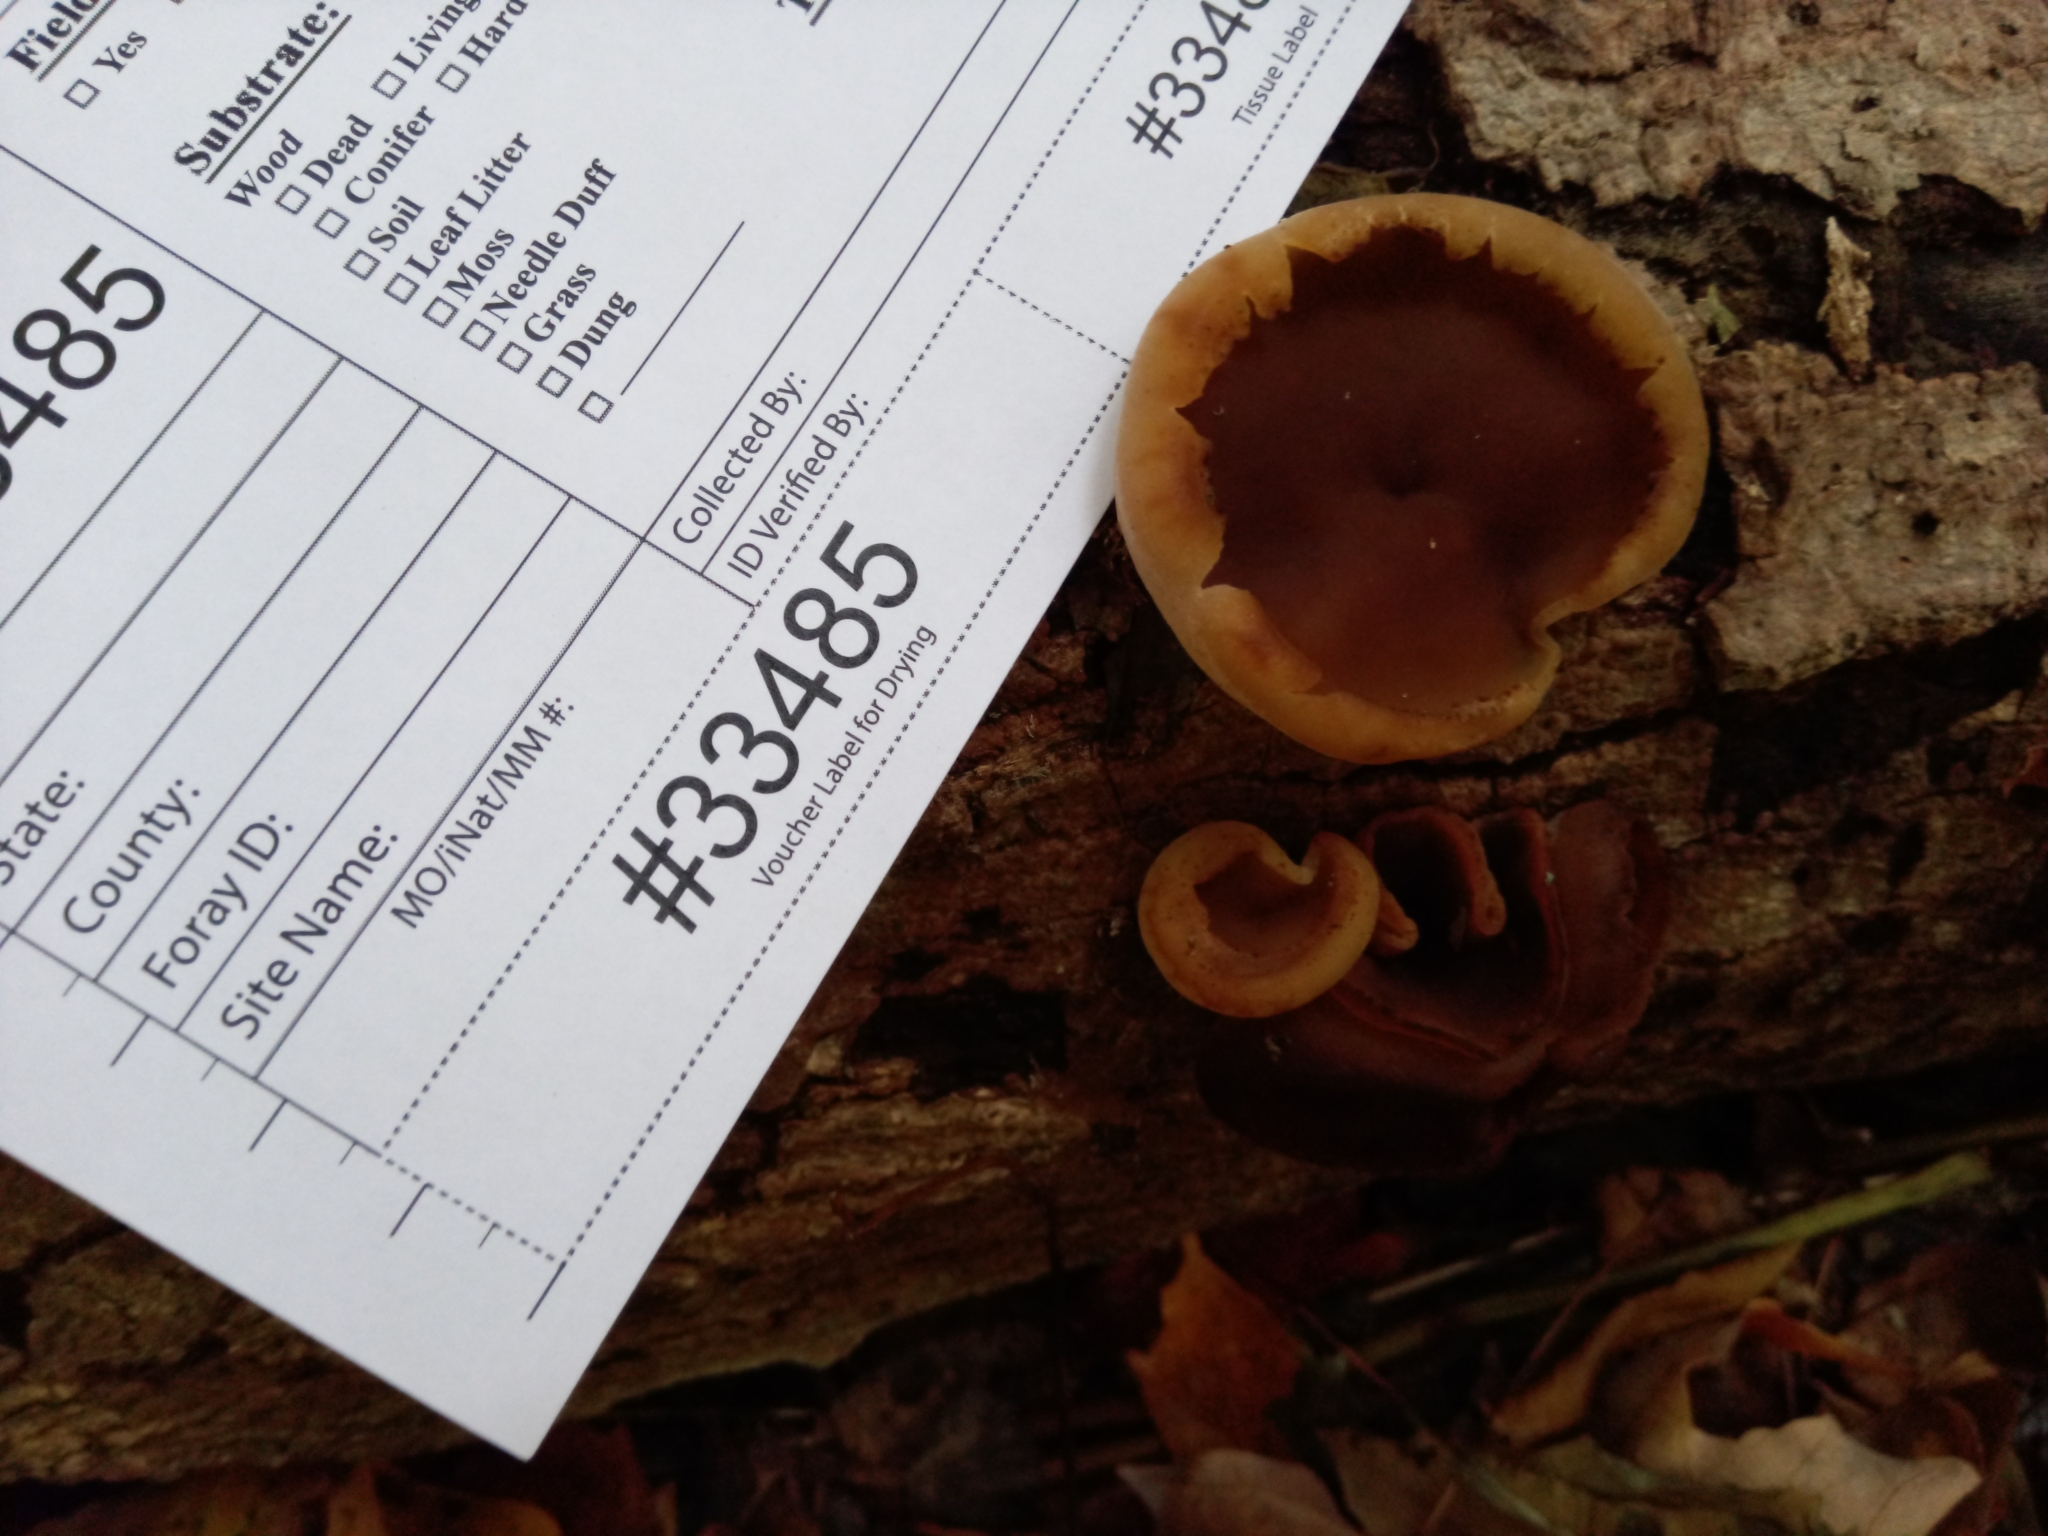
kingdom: Fungi
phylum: Ascomycota
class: Pezizomycetes
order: Pezizales
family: Pezizaceae
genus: Peziza
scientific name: Peziza varia
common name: Layered cup
